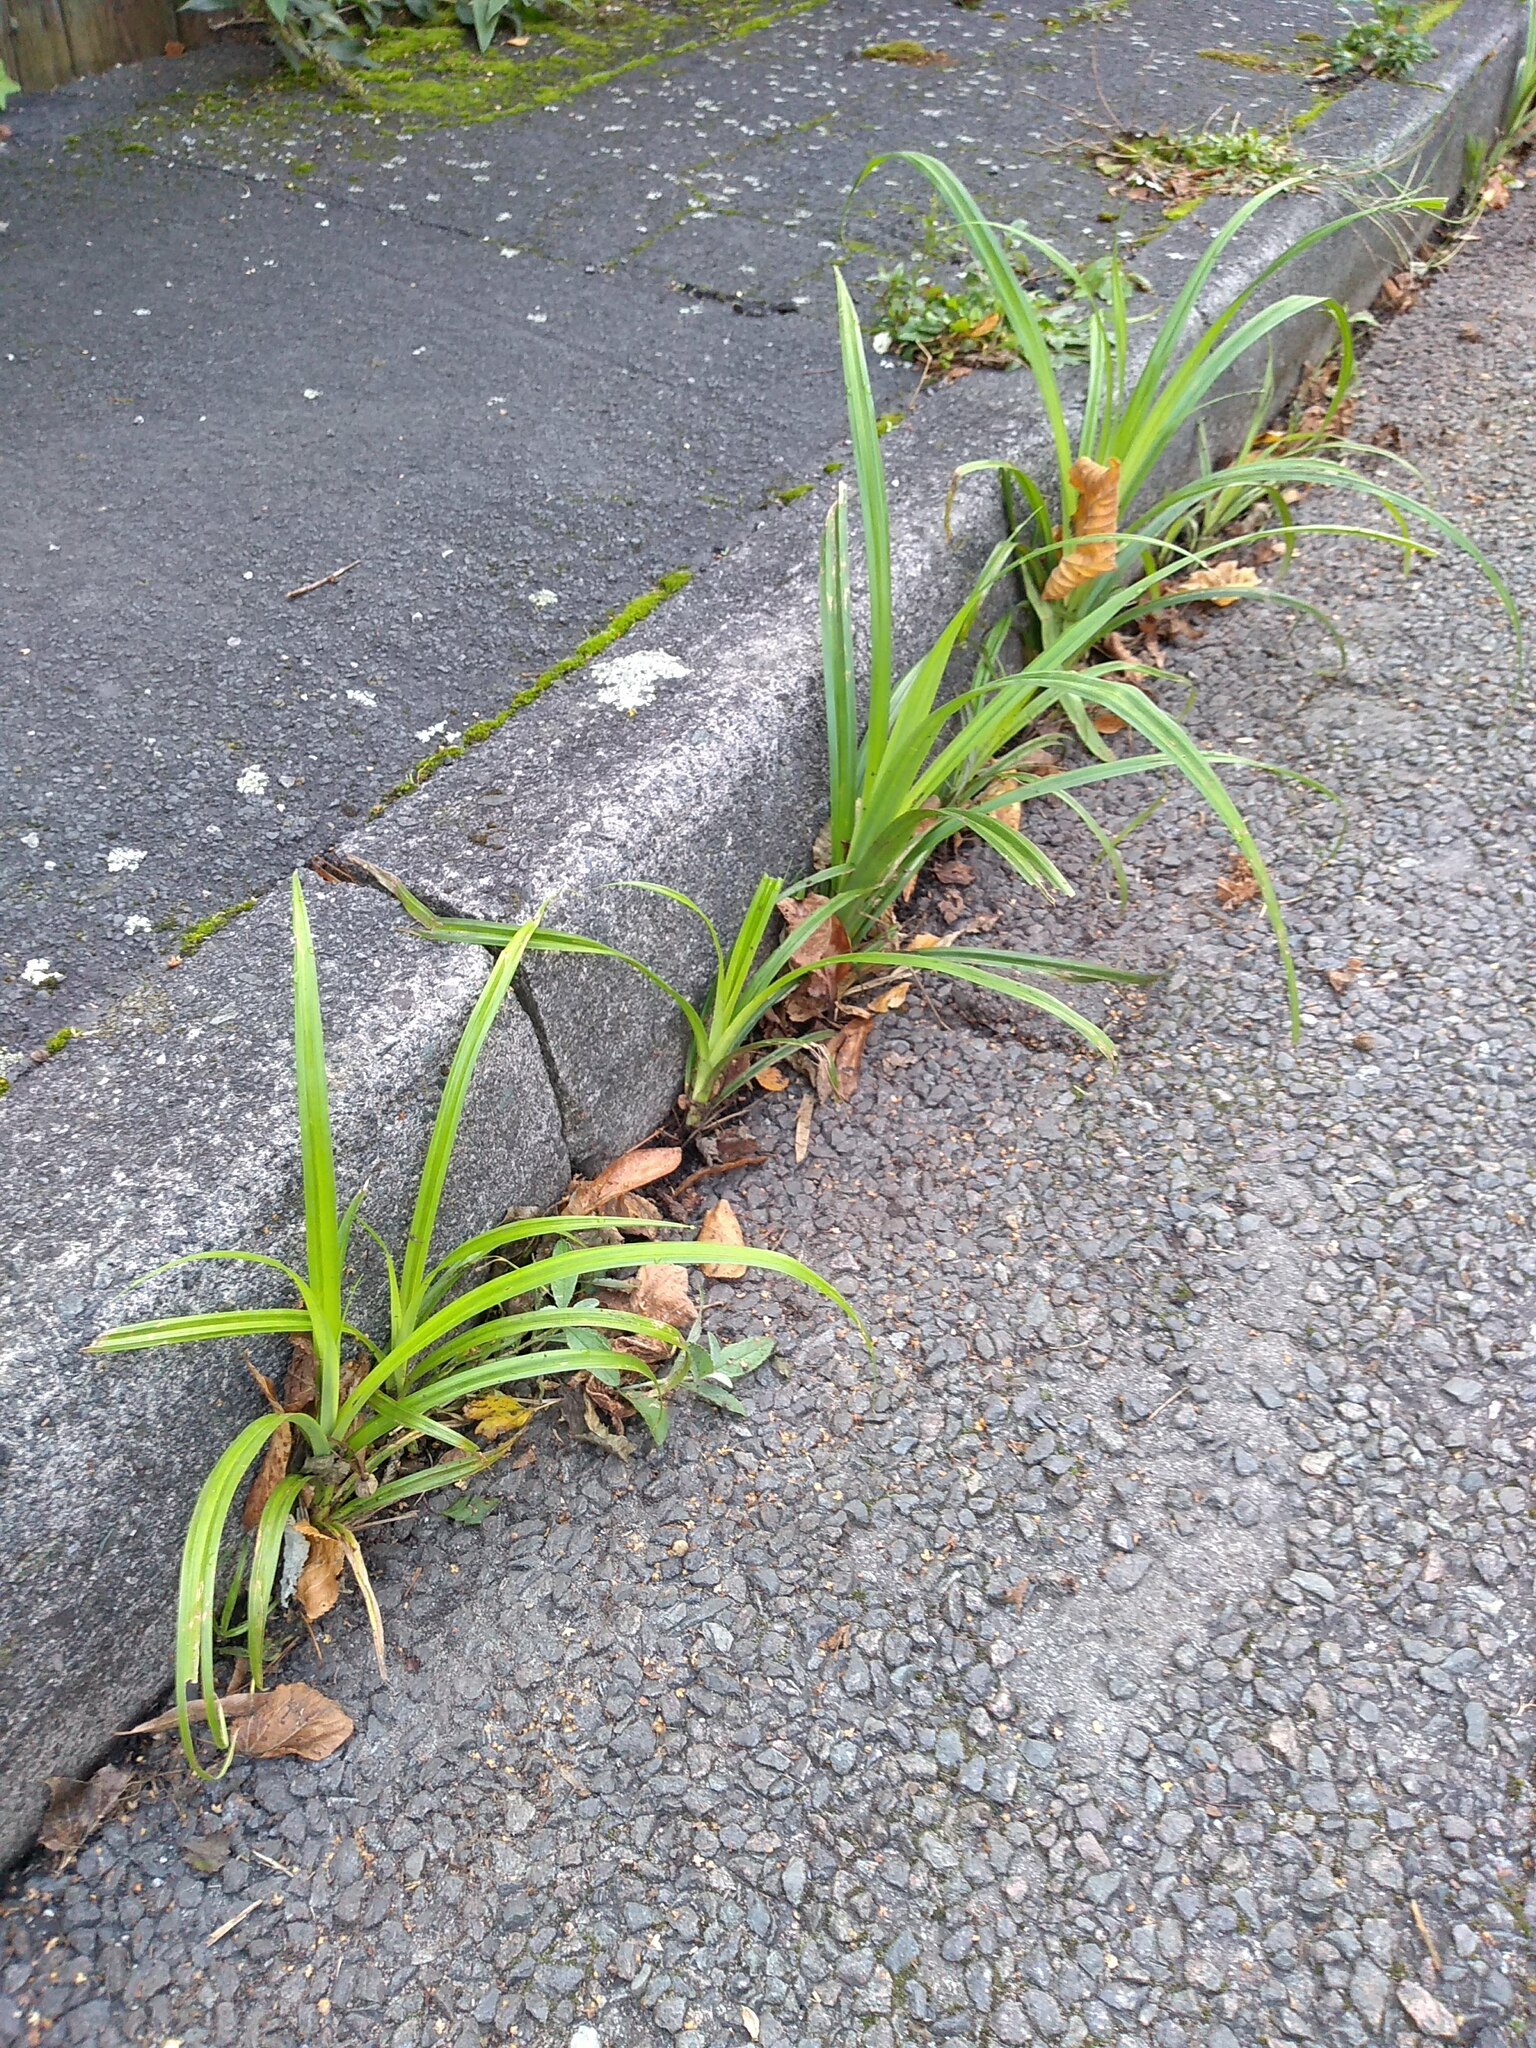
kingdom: Plantae
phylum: Tracheophyta
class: Liliopsida
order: Poales
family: Cyperaceae
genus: Carex
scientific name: Carex pendula
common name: Pendulous sedge
